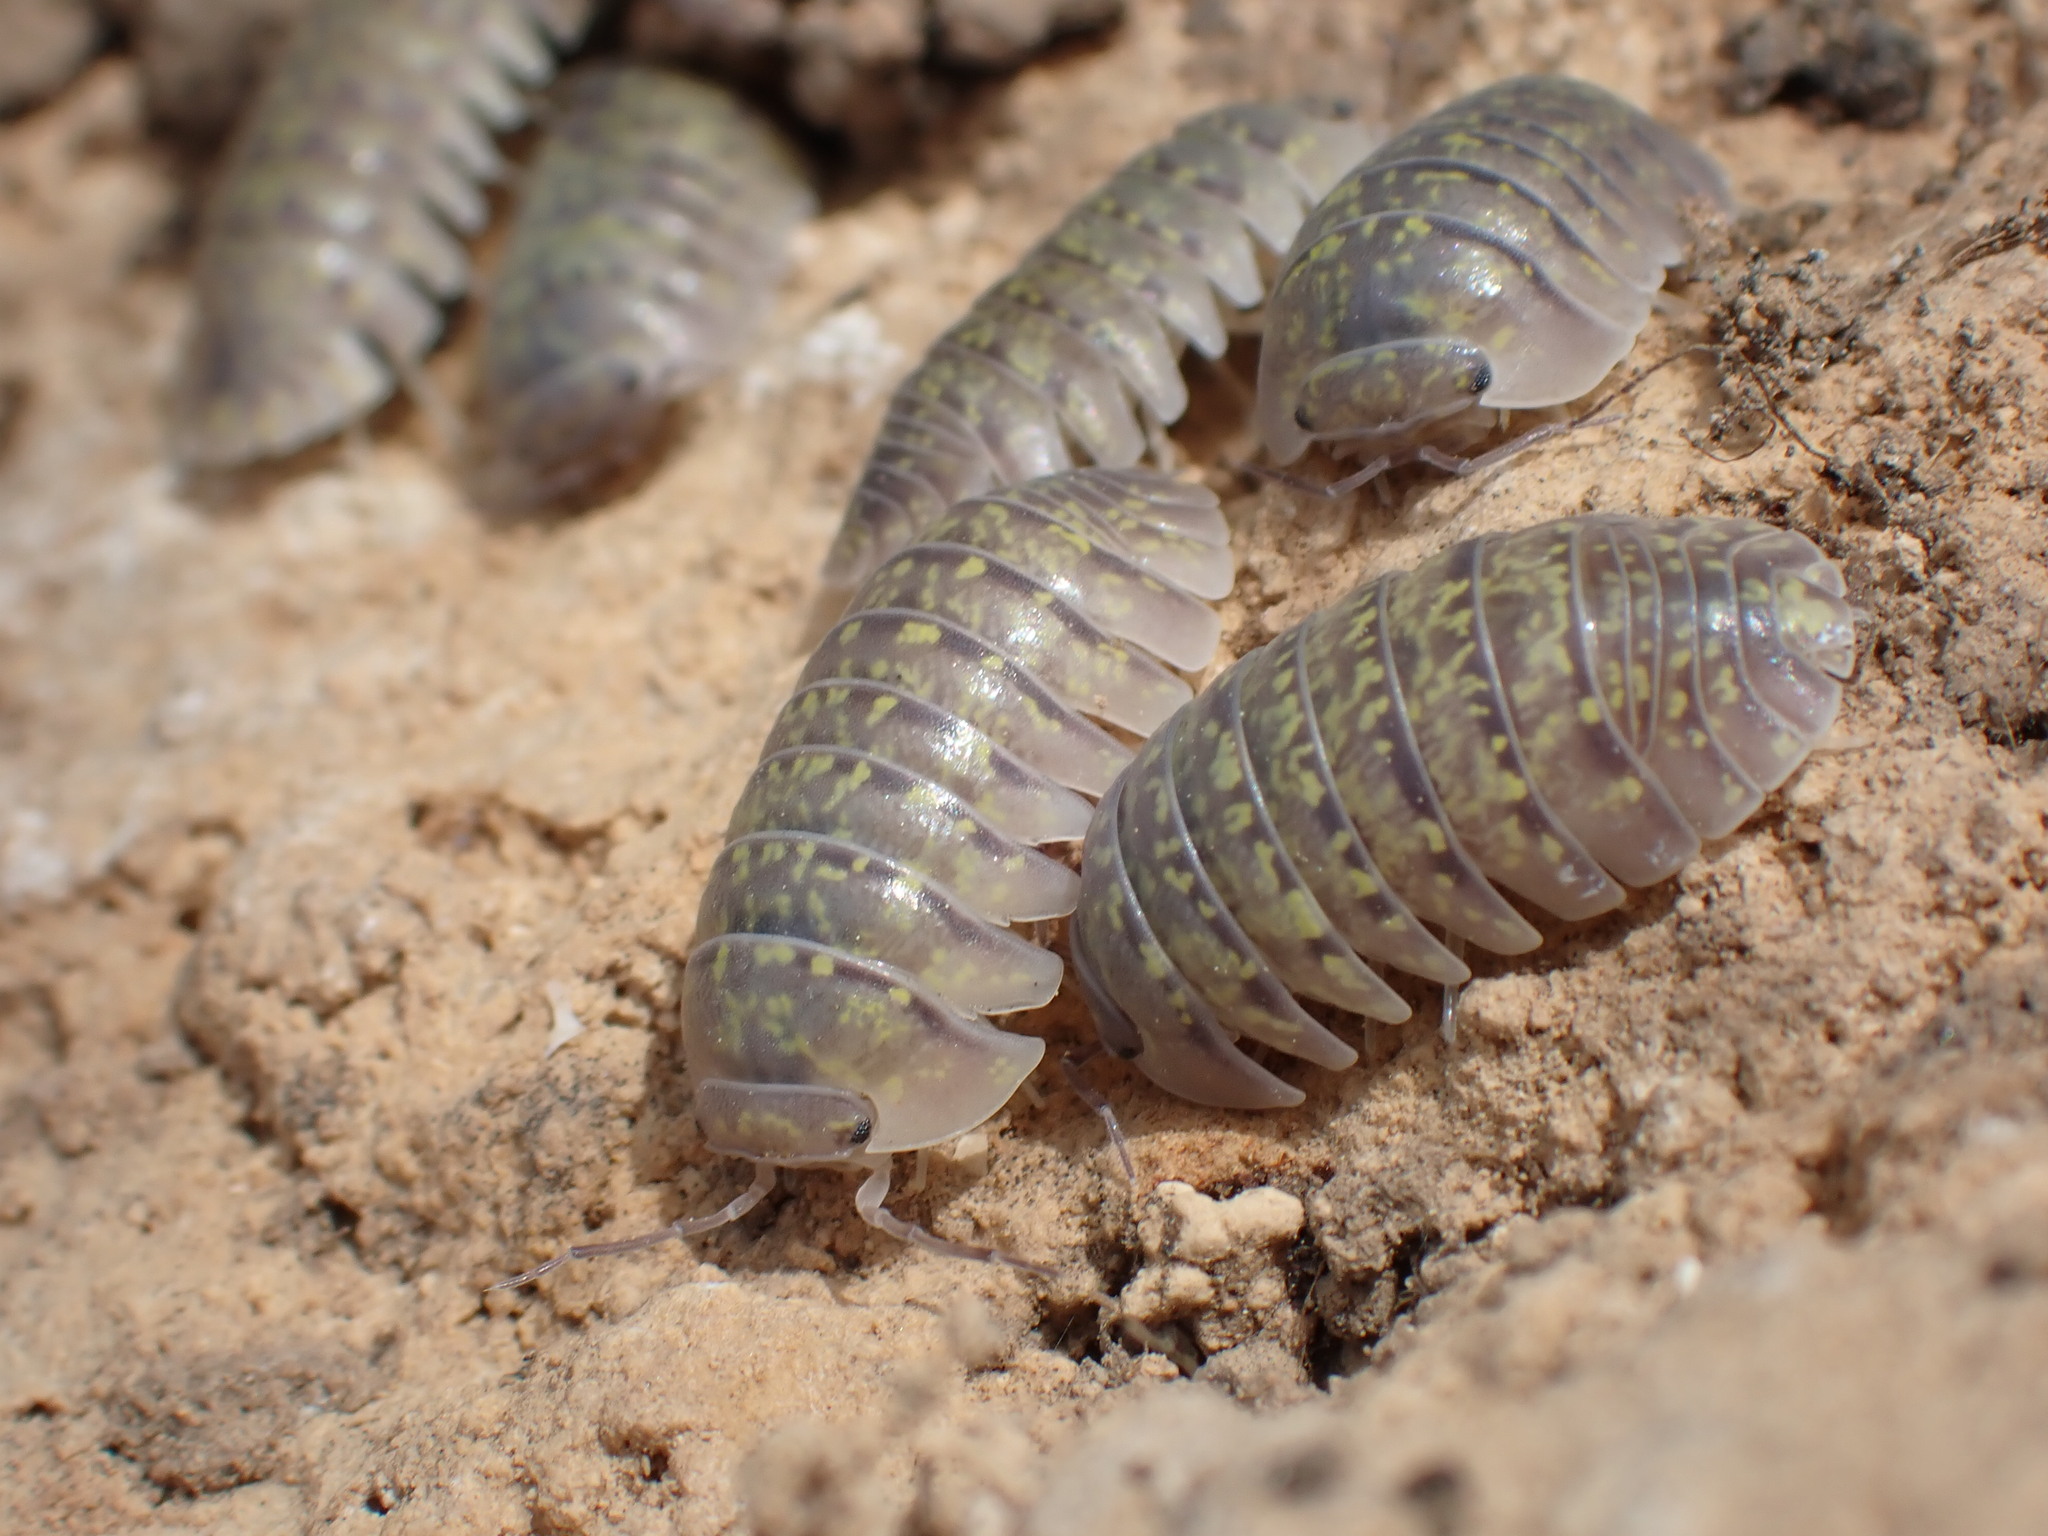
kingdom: Animalia
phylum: Arthropoda
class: Malacostraca
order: Isopoda
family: Armadillidiidae
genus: Armadillidium
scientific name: Armadillidium ameglioi
